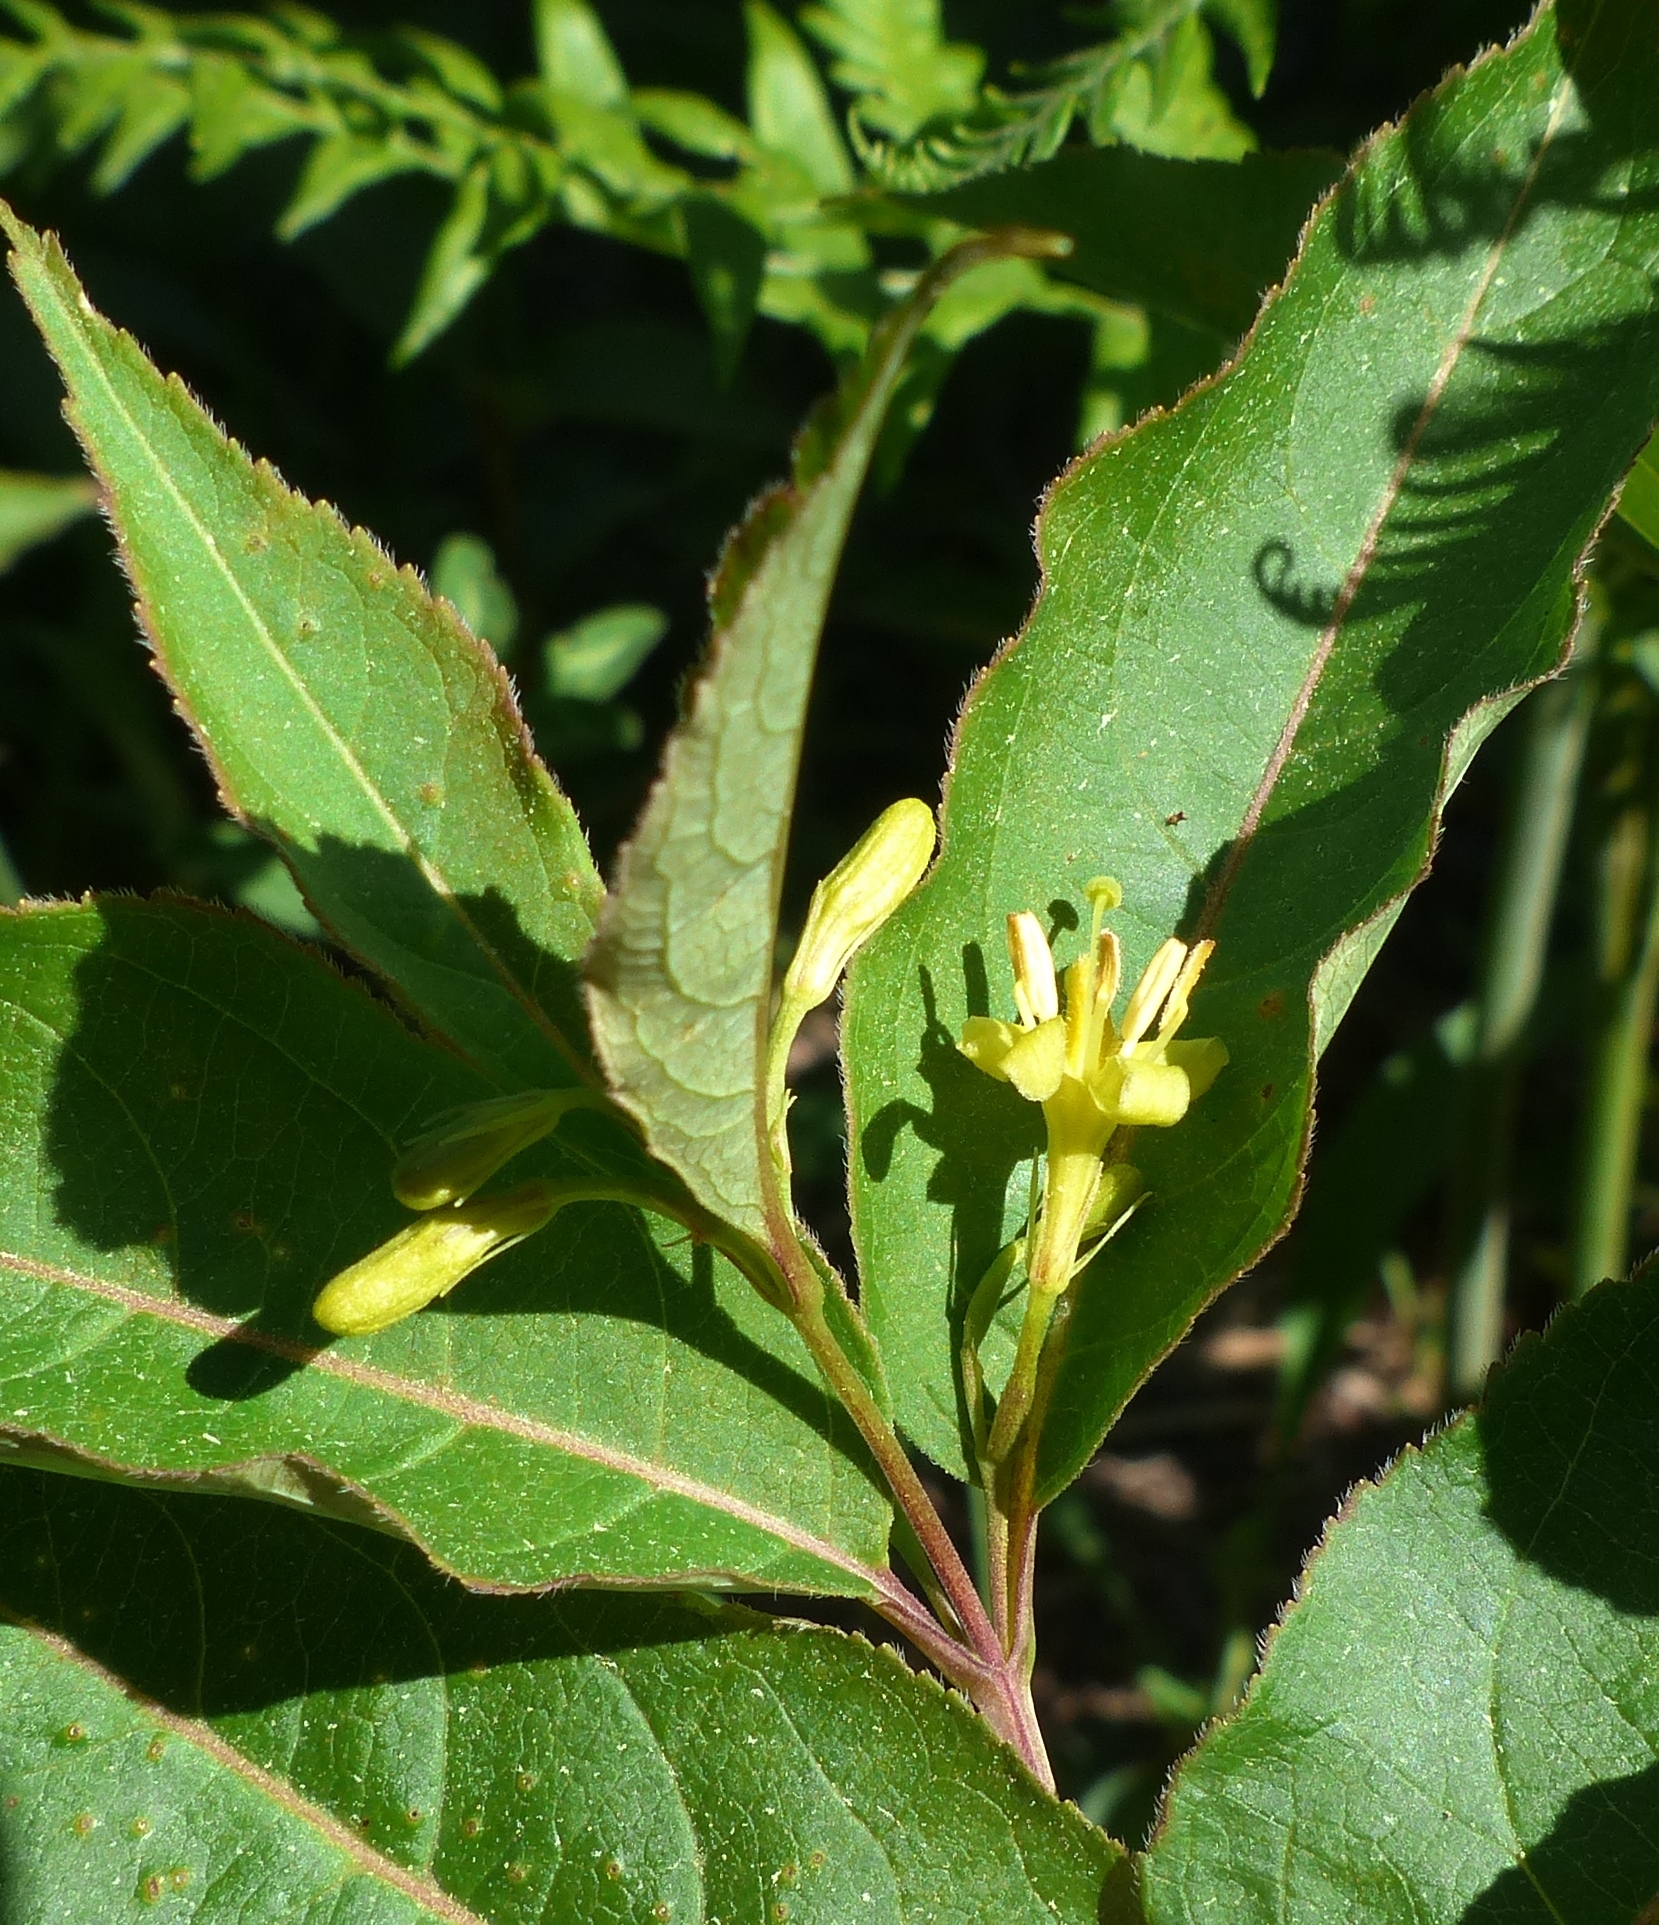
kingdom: Plantae
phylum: Tracheophyta
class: Magnoliopsida
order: Dipsacales
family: Caprifoliaceae
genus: Diervilla
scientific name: Diervilla lonicera
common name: Bush-honeysuckle
